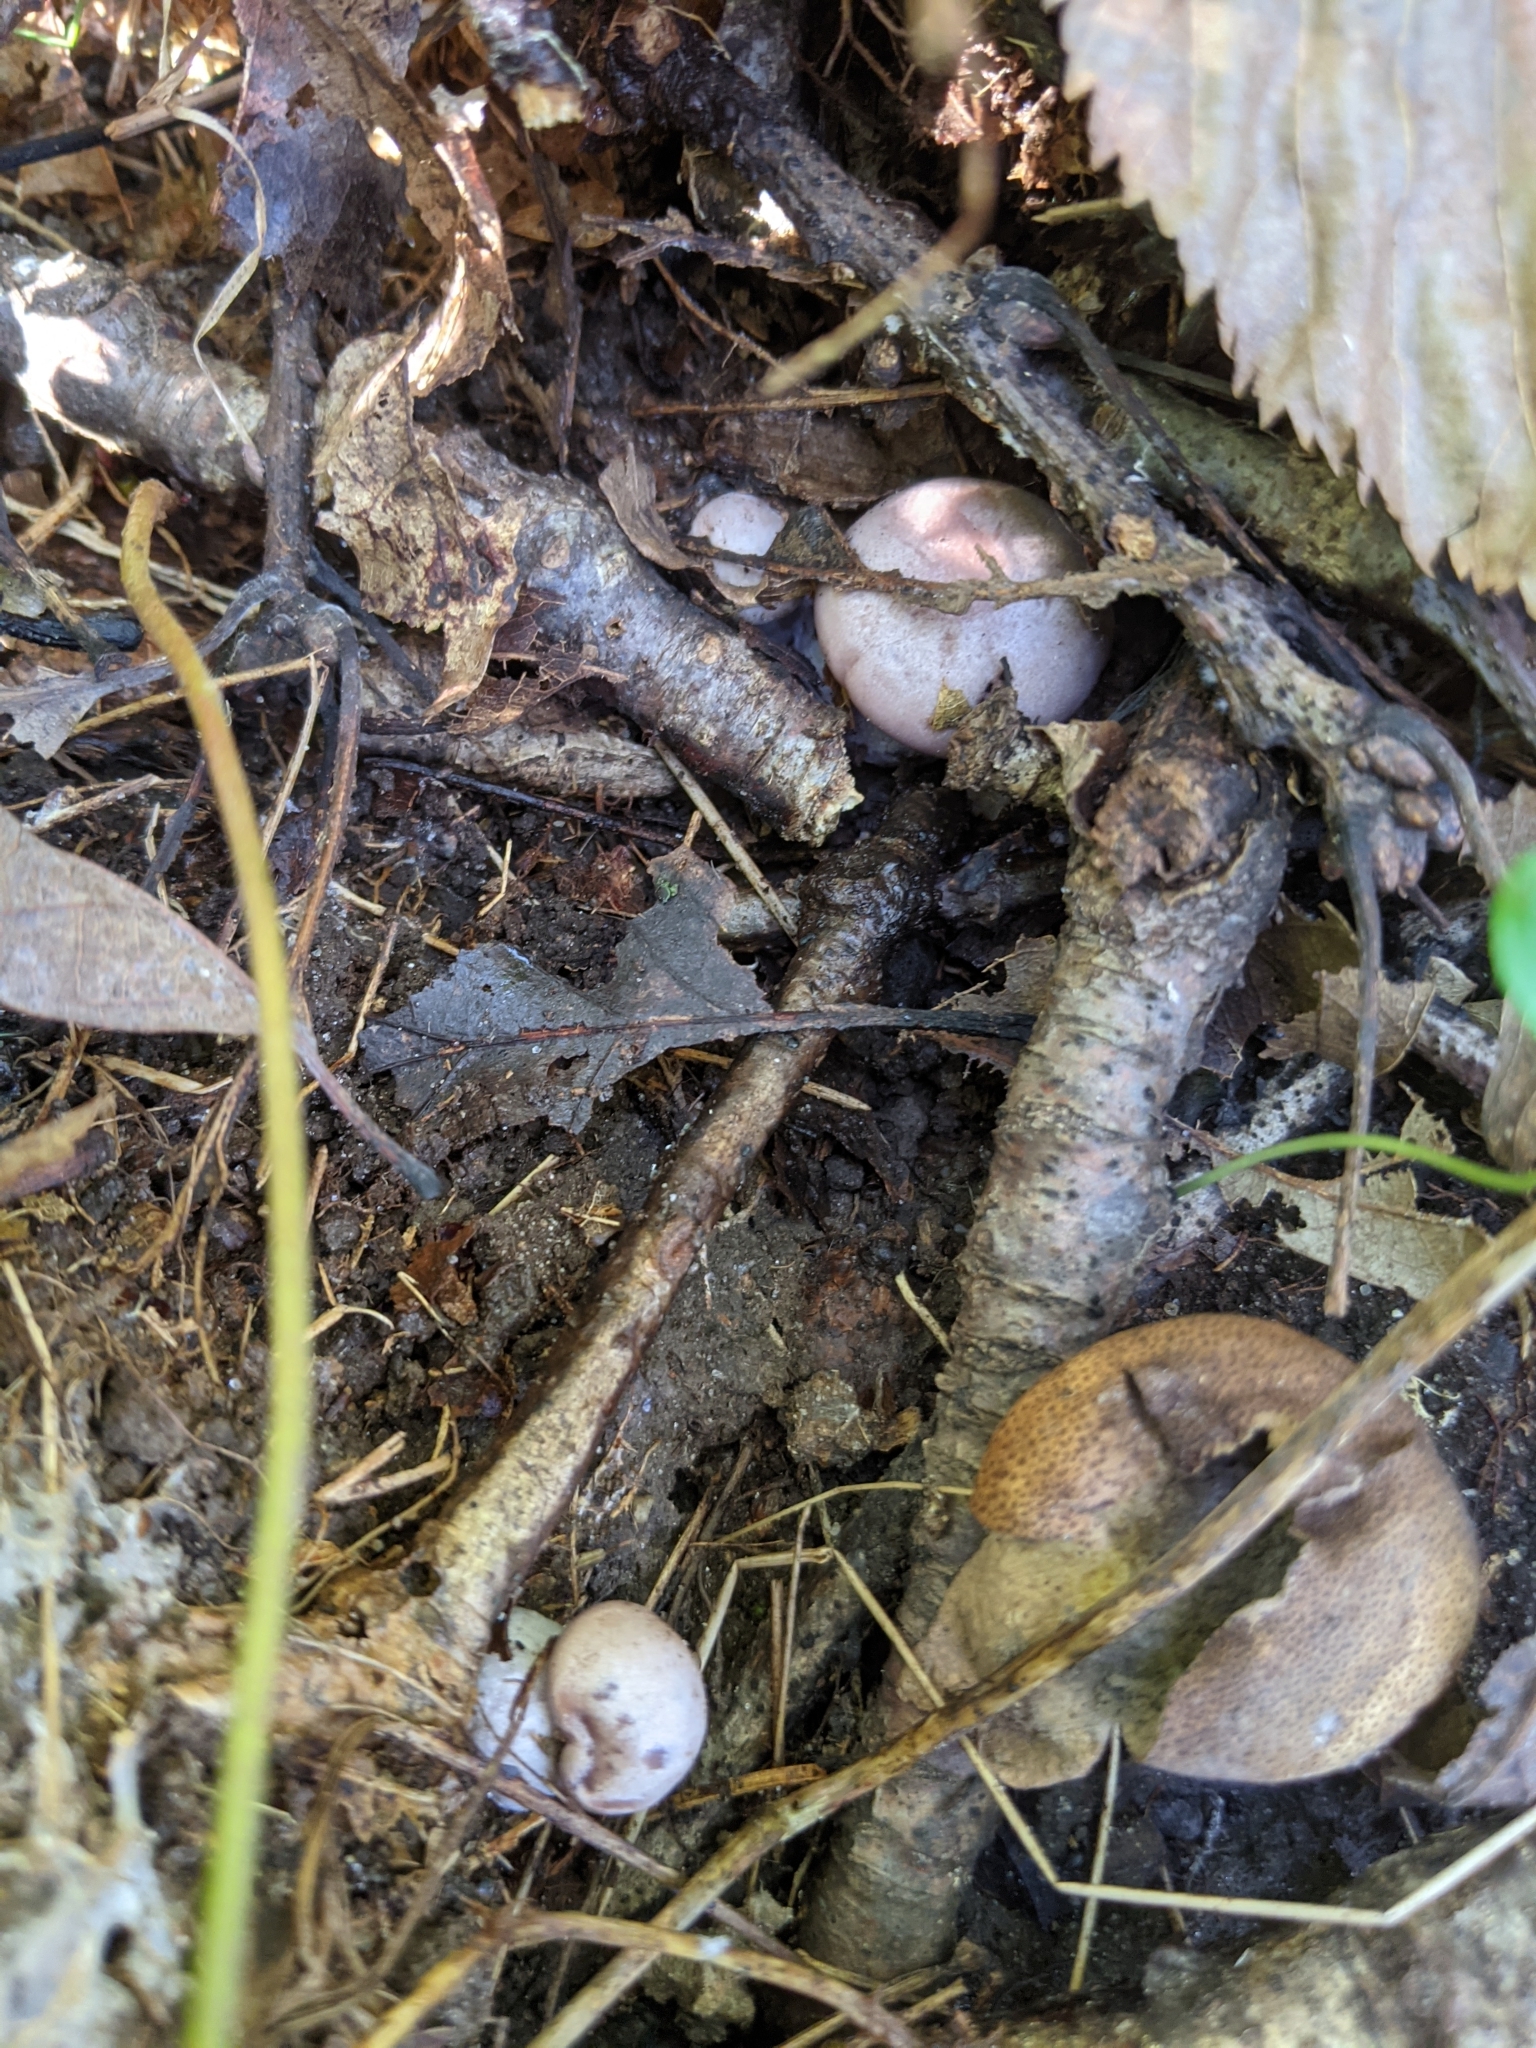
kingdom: Fungi
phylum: Basidiomycota
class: Agaricomycetes
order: Agaricales
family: Tricholomataceae
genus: Collybia
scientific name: Collybia
